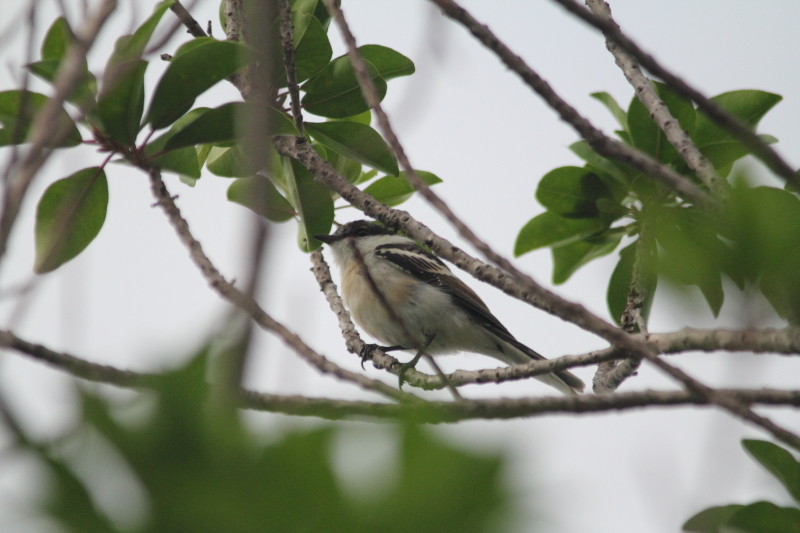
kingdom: Animalia
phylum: Chordata
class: Aves
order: Passeriformes
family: Campephagidae
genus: Lalage
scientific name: Lalage leucopyga
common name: Long-tailed triller
